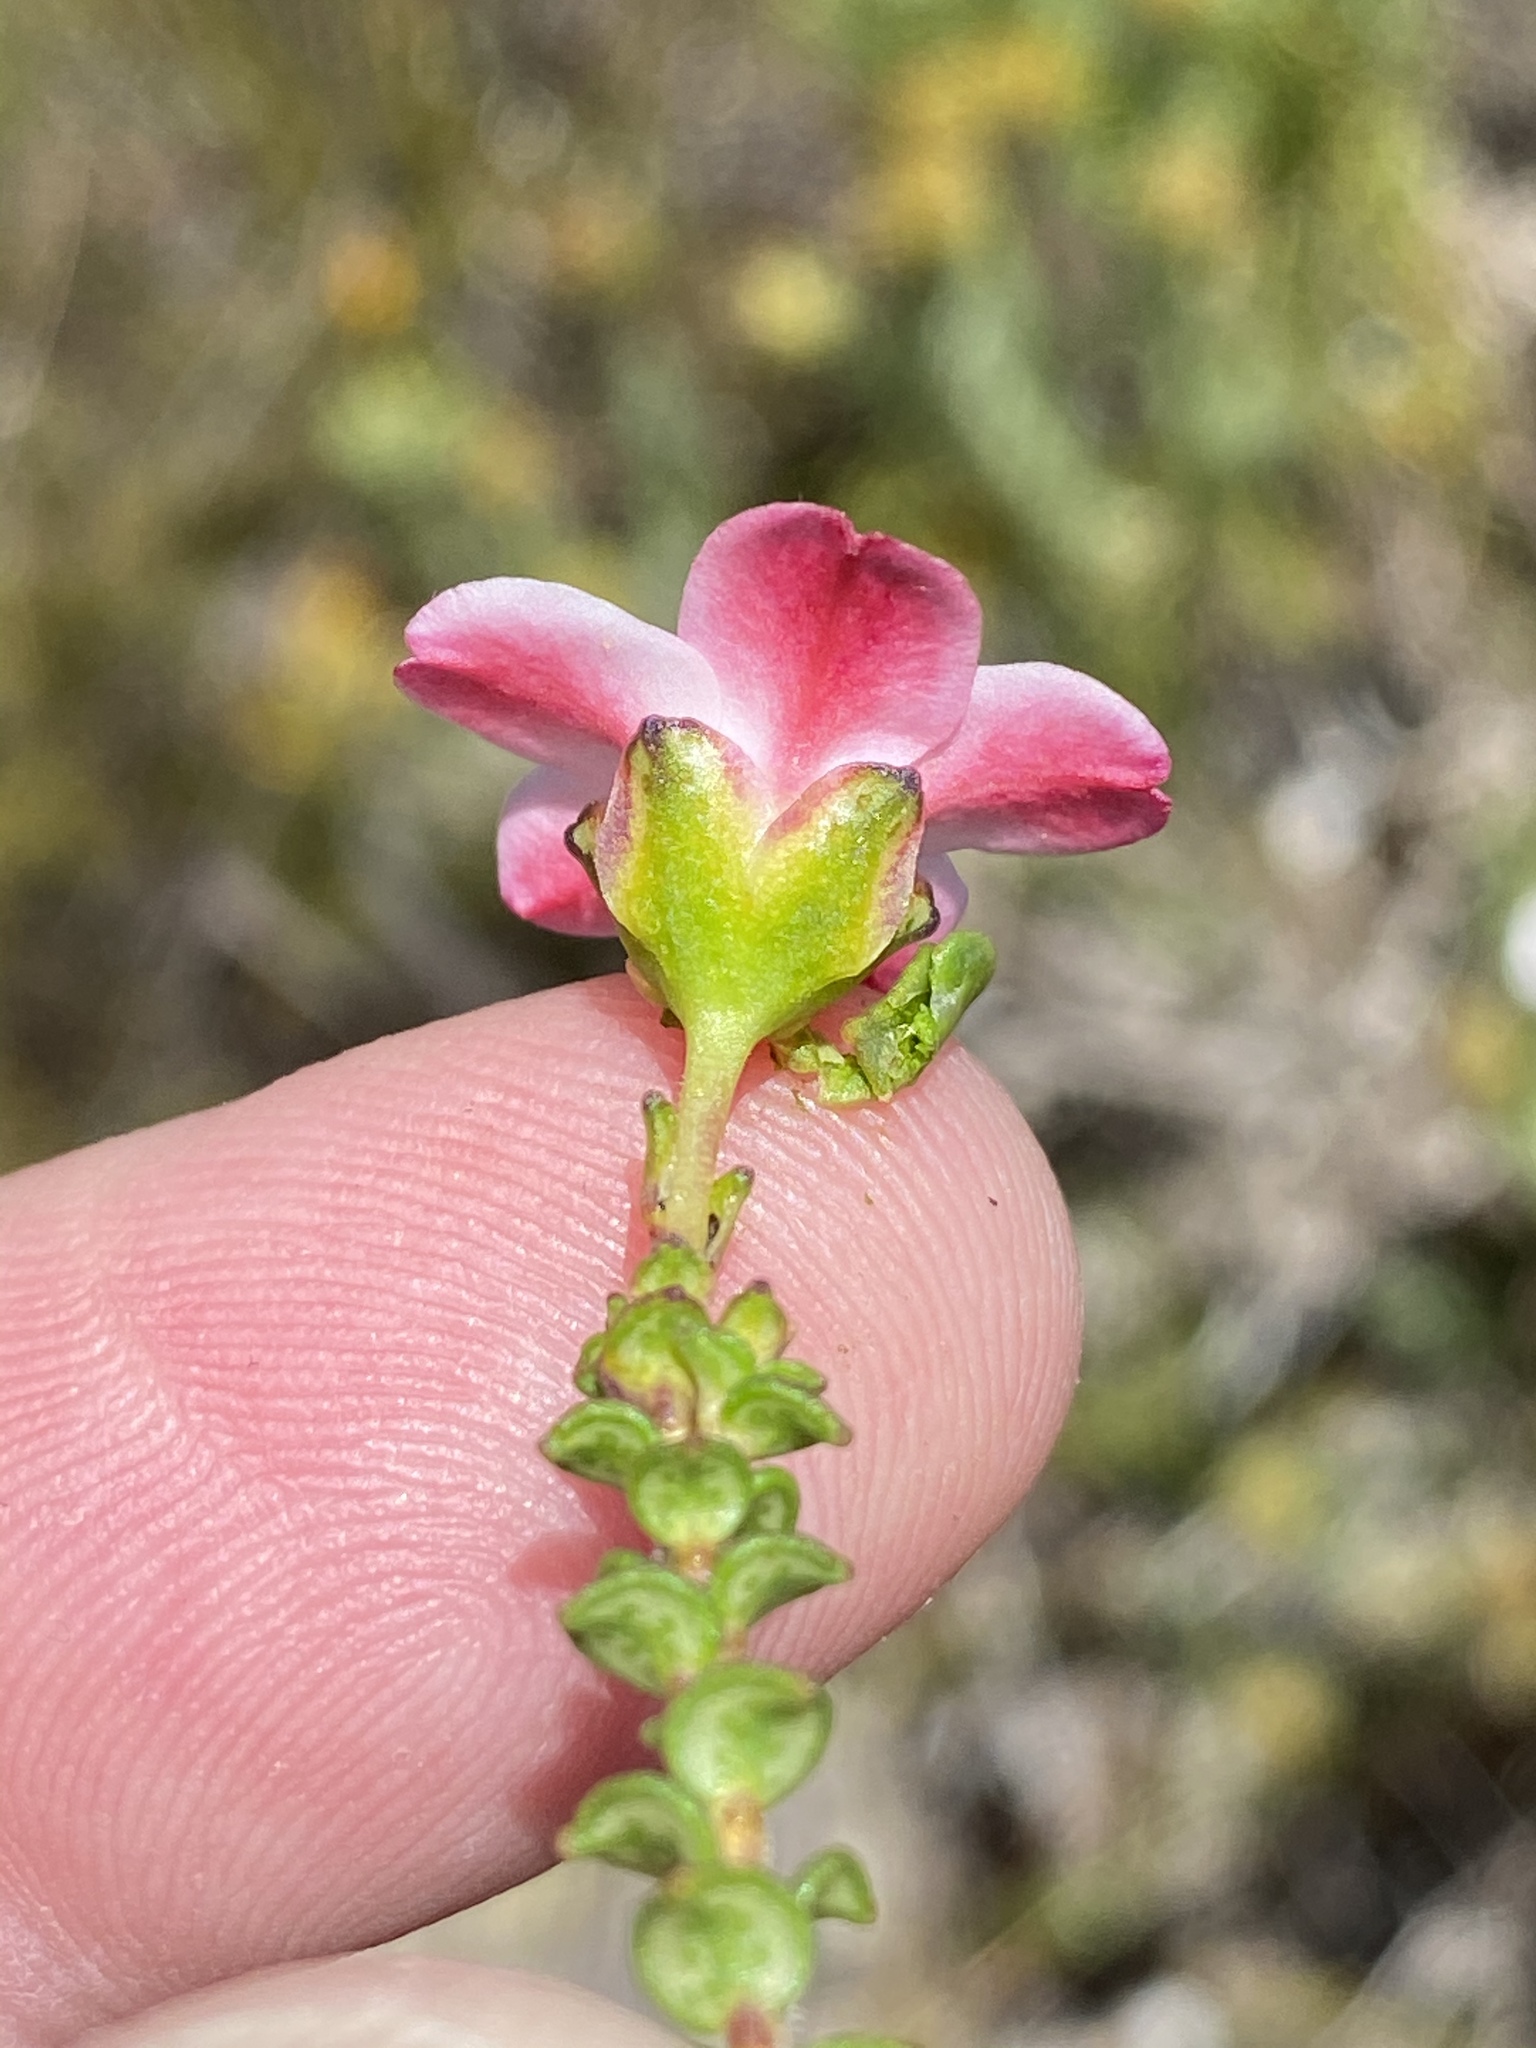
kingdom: Plantae
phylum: Tracheophyta
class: Magnoliopsida
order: Sapindales
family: Rutaceae
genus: Adenandra
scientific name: Adenandra brachyphylla
